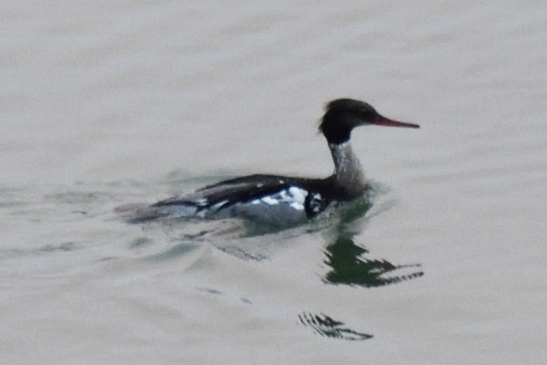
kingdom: Animalia
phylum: Chordata
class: Aves
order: Anseriformes
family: Anatidae
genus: Mergus
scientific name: Mergus serrator
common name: Red-breasted merganser
